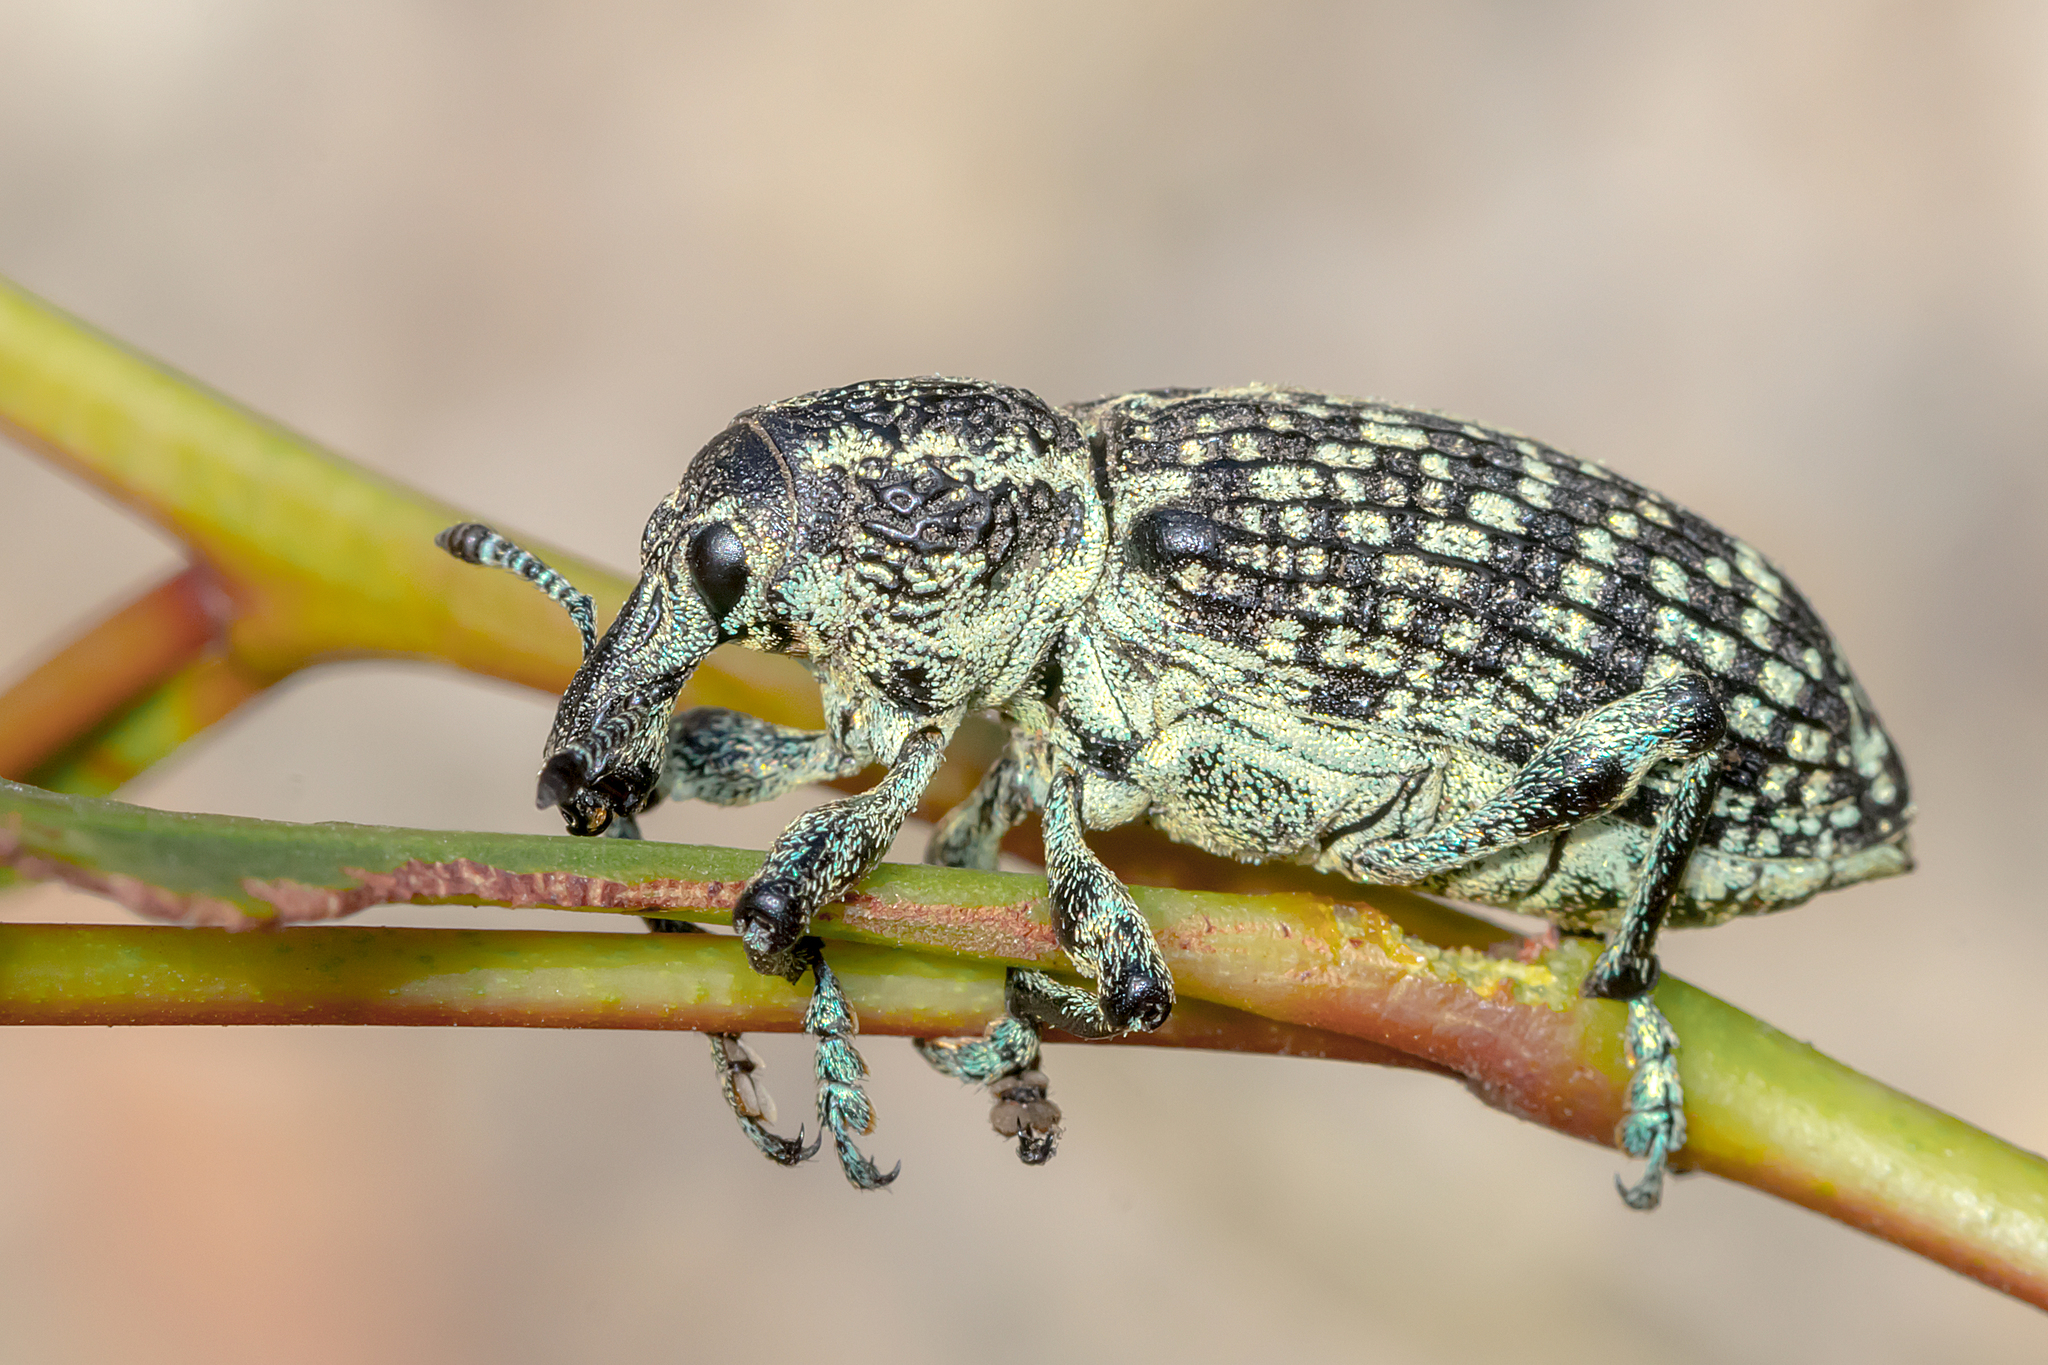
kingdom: Animalia
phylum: Arthropoda
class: Insecta
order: Coleoptera
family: Curculionidae
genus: Chrysolopus
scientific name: Chrysolopus spectabilis
